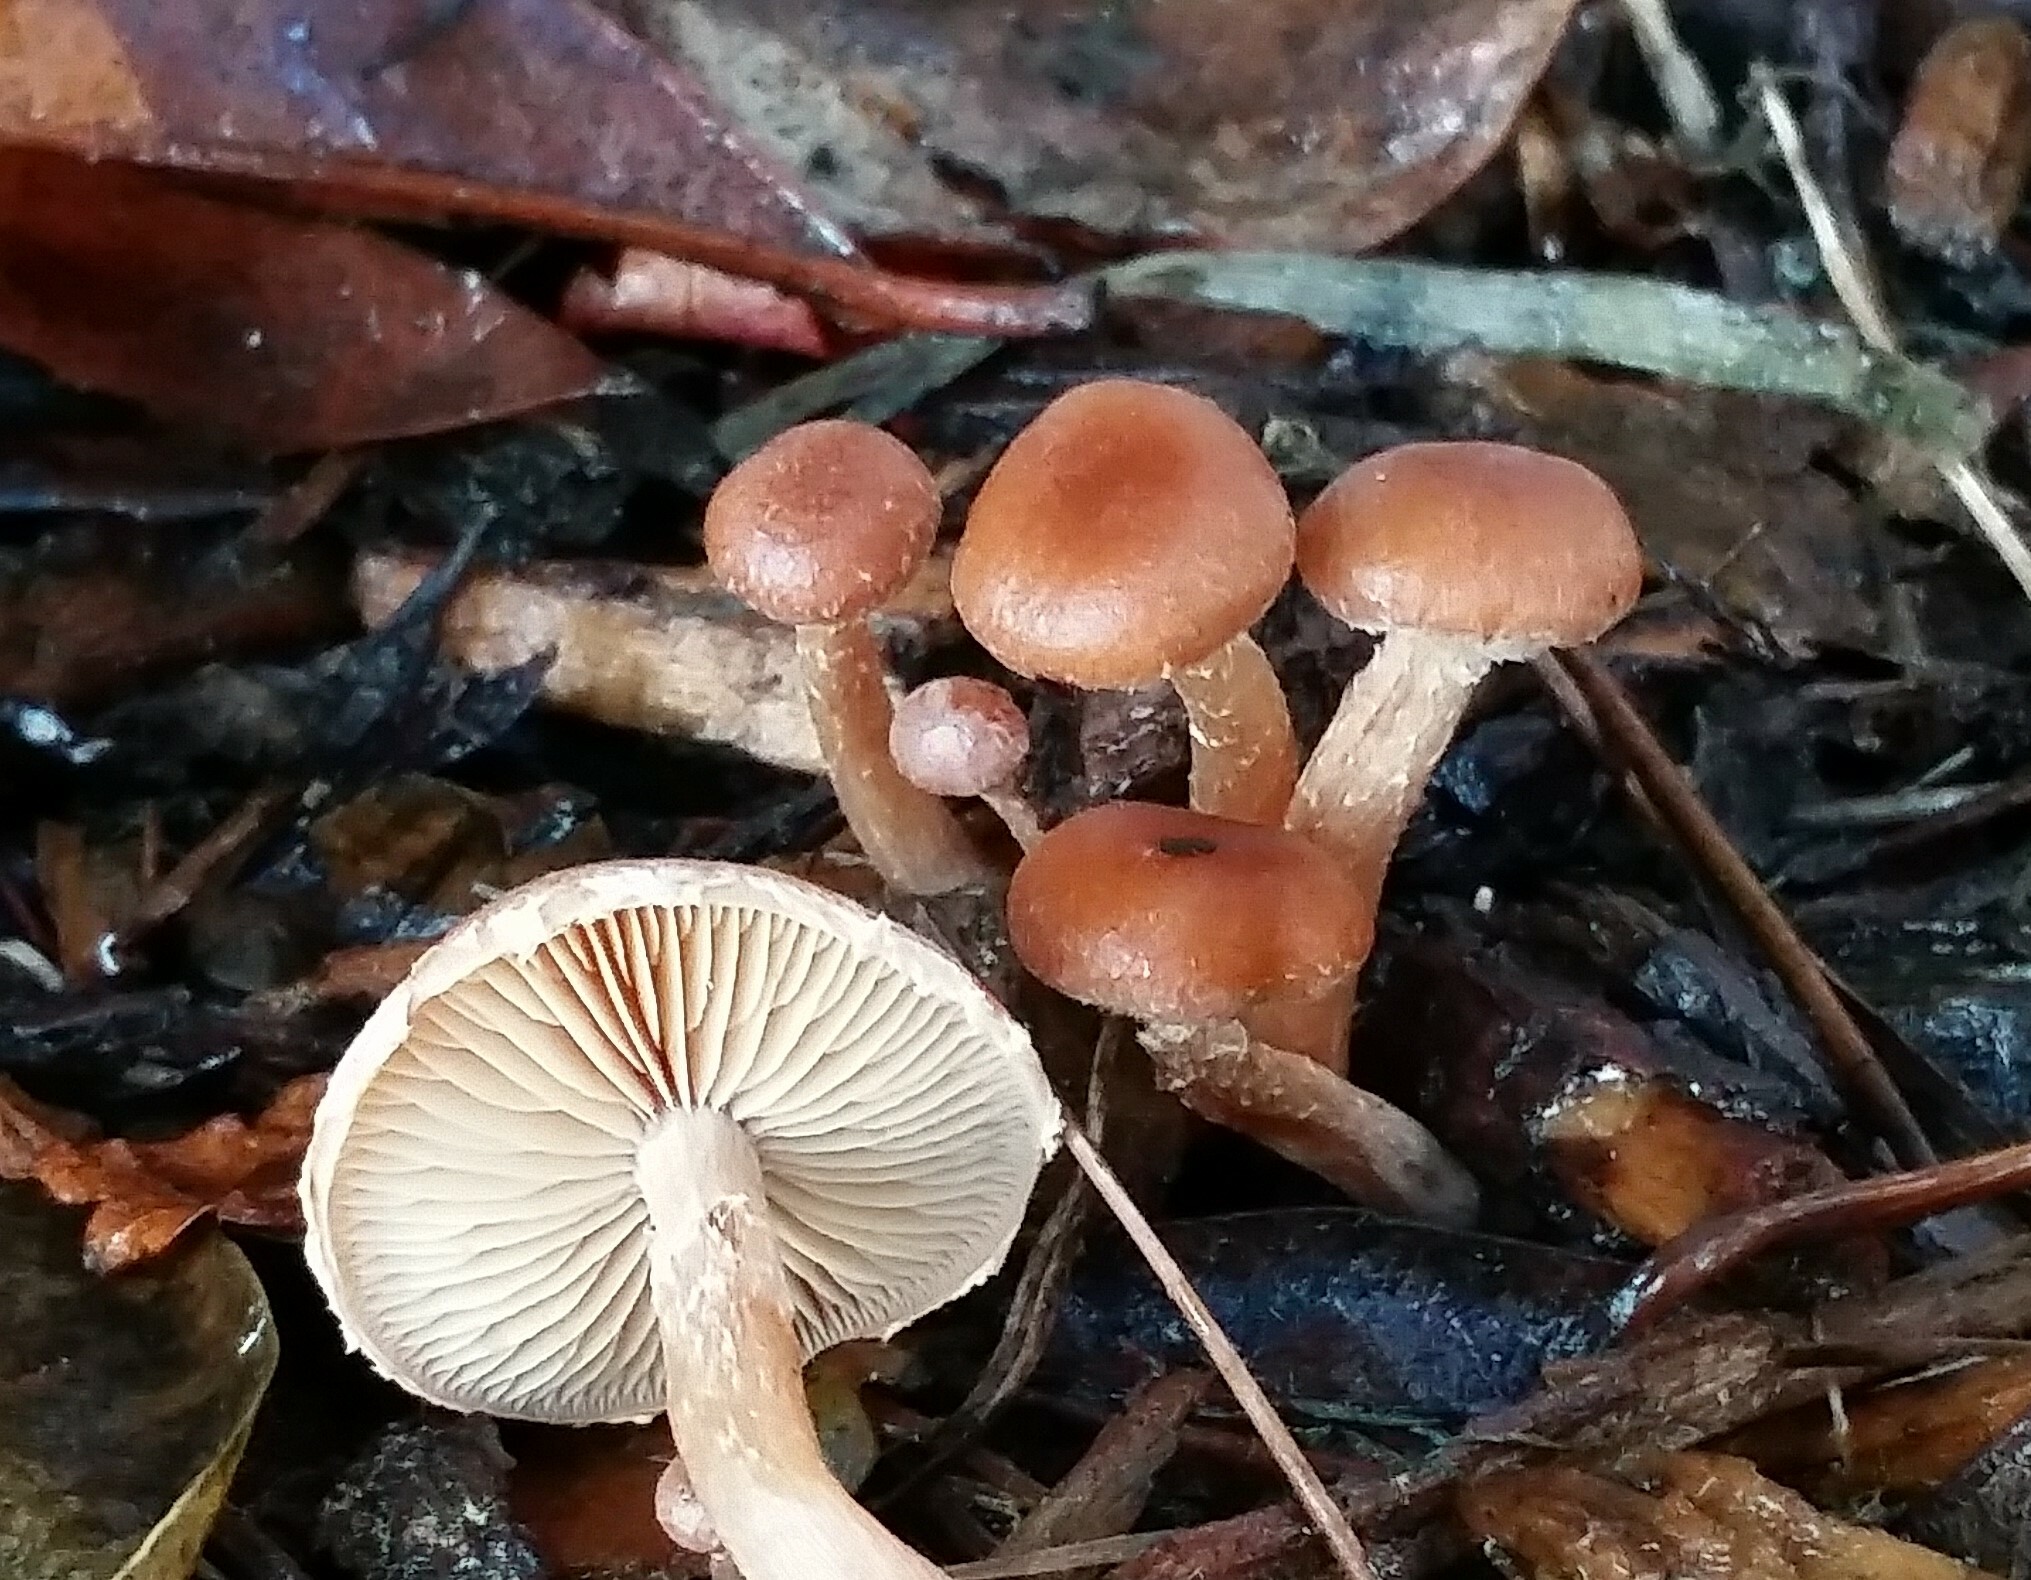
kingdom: Fungi
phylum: Basidiomycota
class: Agaricomycetes
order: Agaricales
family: Omphalotaceae
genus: Gymnopus
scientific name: Gymnopus dryophilus
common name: Penny top
